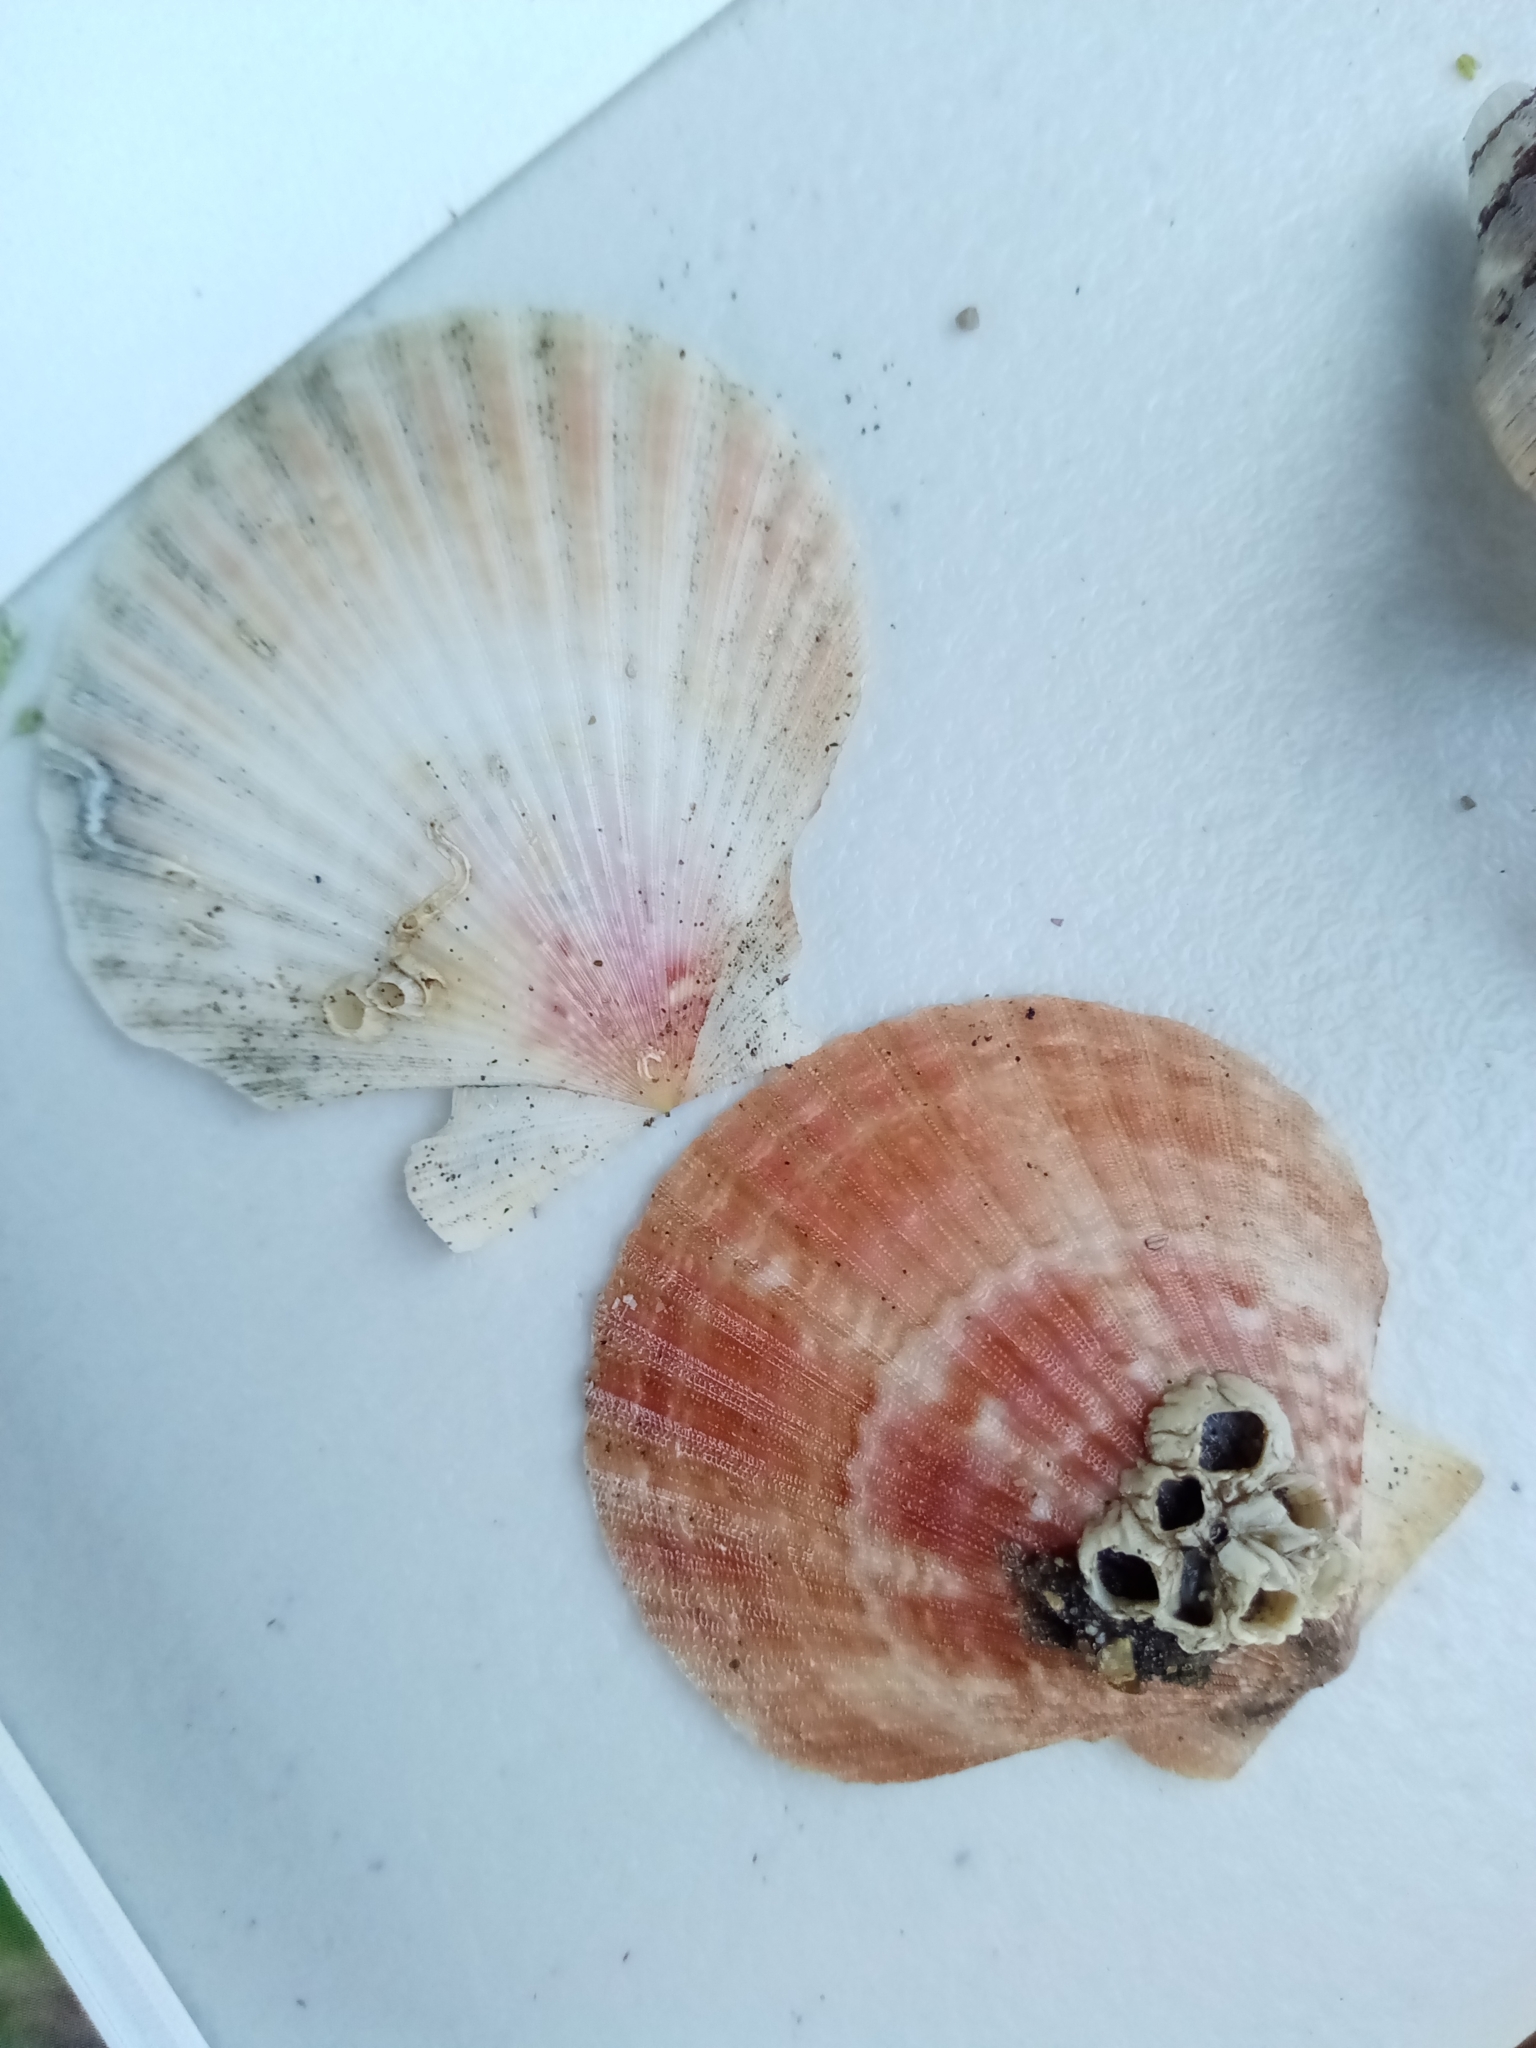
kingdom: Animalia
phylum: Mollusca
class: Bivalvia
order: Pectinida
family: Pectinidae
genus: Aequipecten
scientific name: Aequipecten opercularis
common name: Queen scallop
